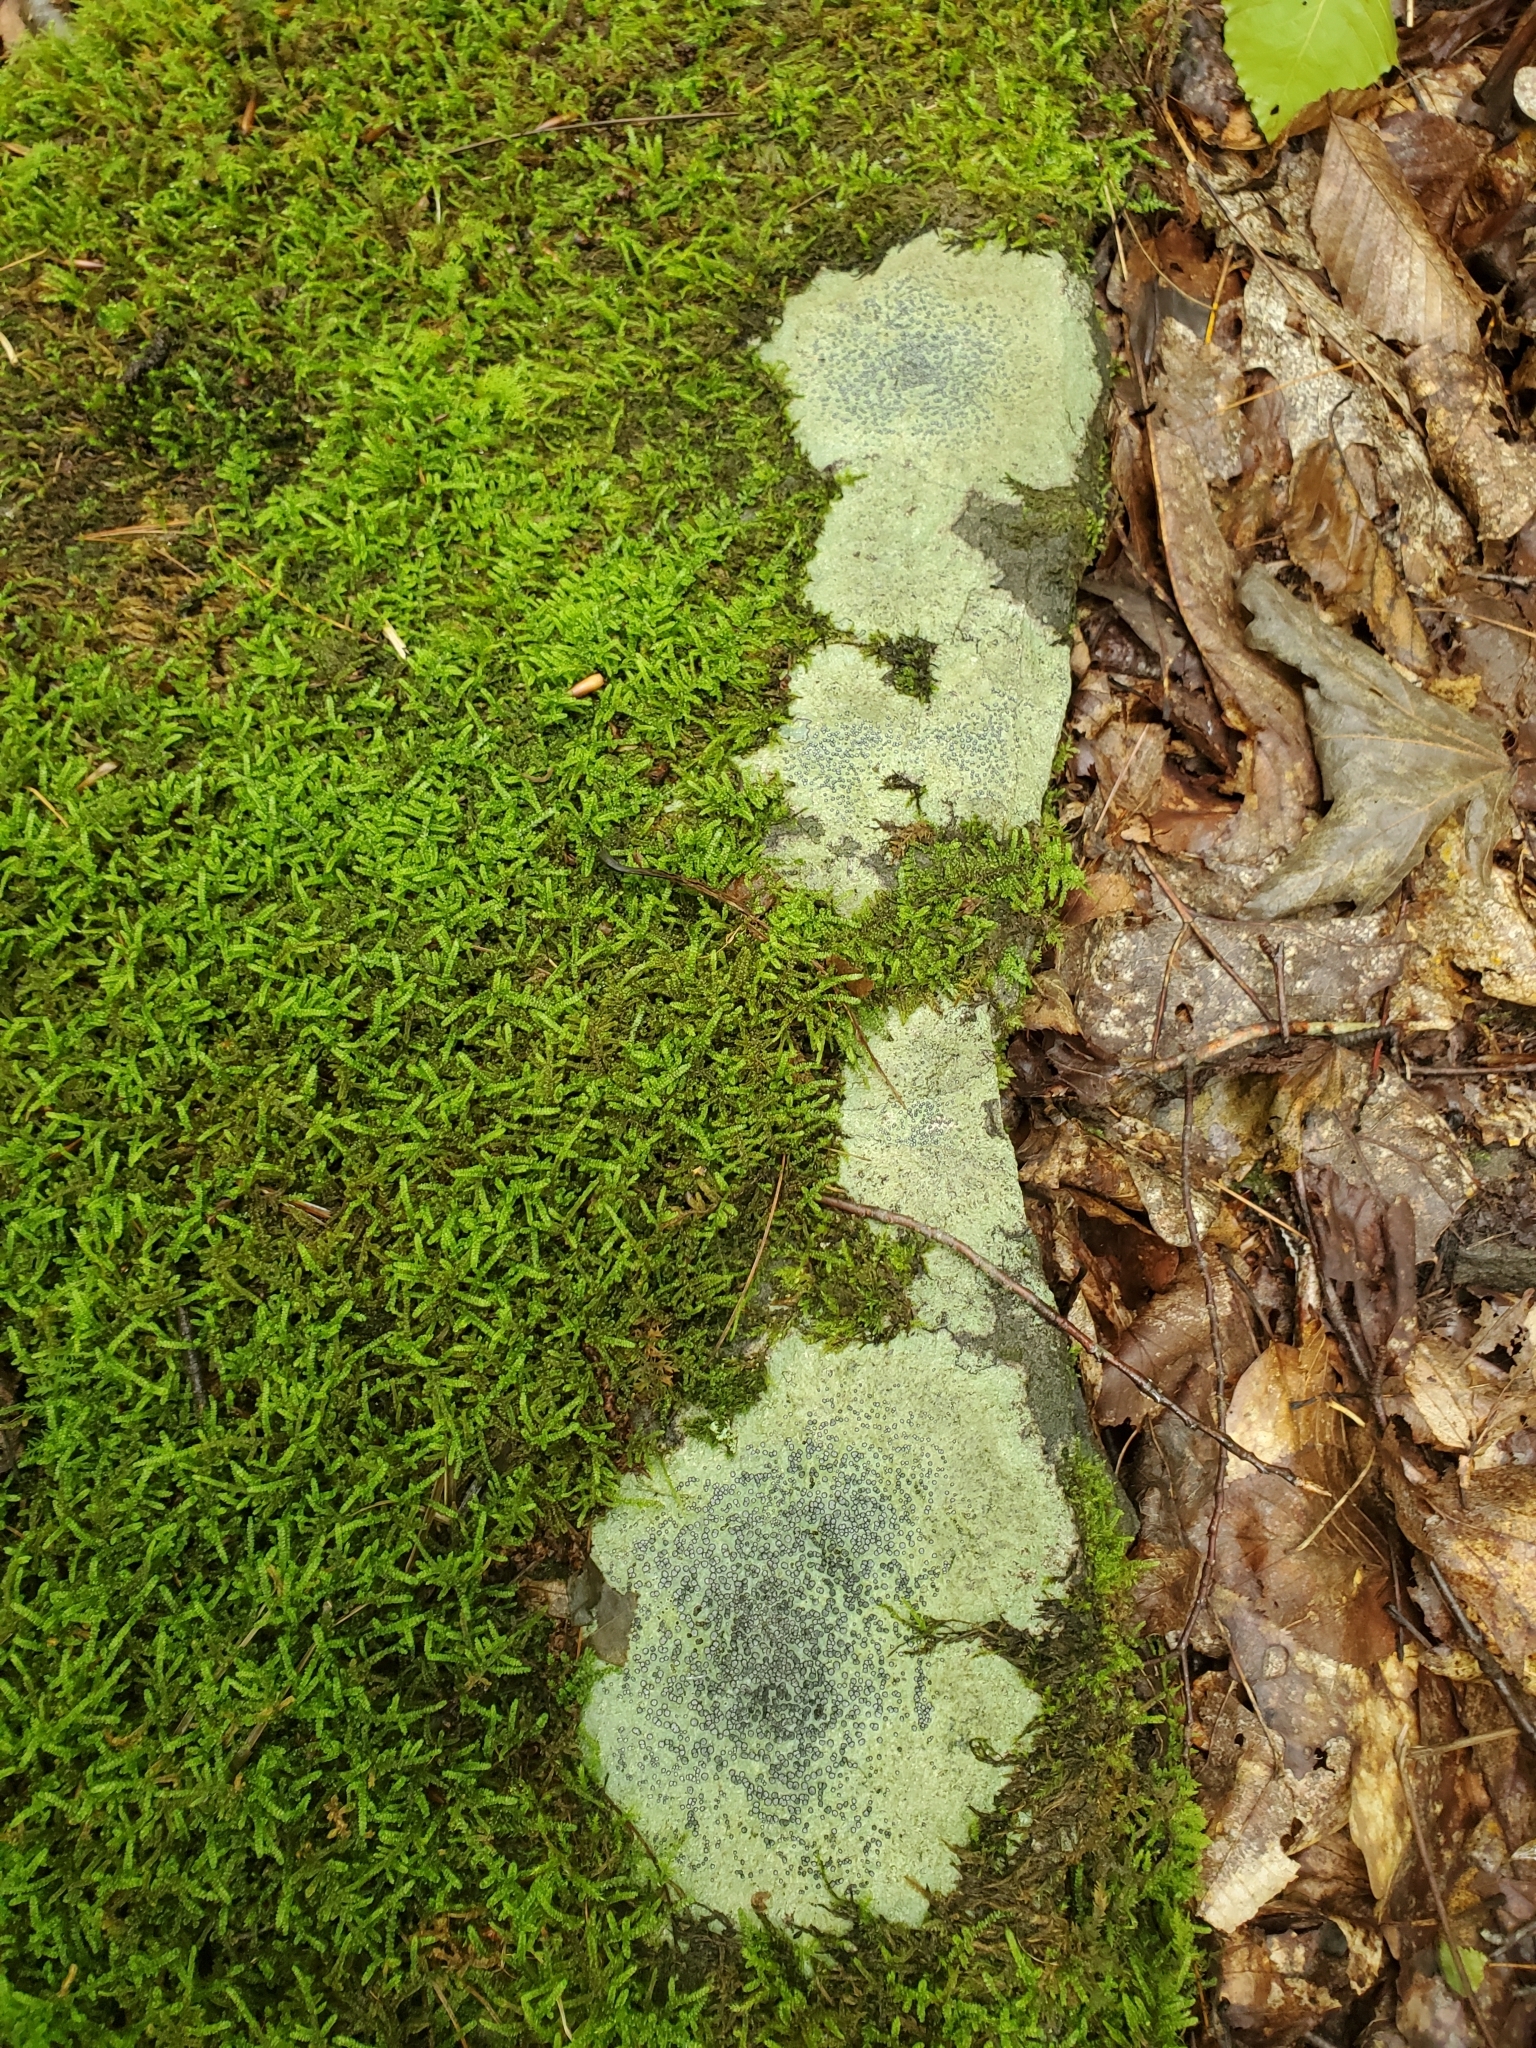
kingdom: Fungi
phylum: Ascomycota
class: Lecanoromycetes
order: Lecideales
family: Lecideaceae
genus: Porpidia
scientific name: Porpidia albocaerulescens
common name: Smokey-eyed boulder lichen
